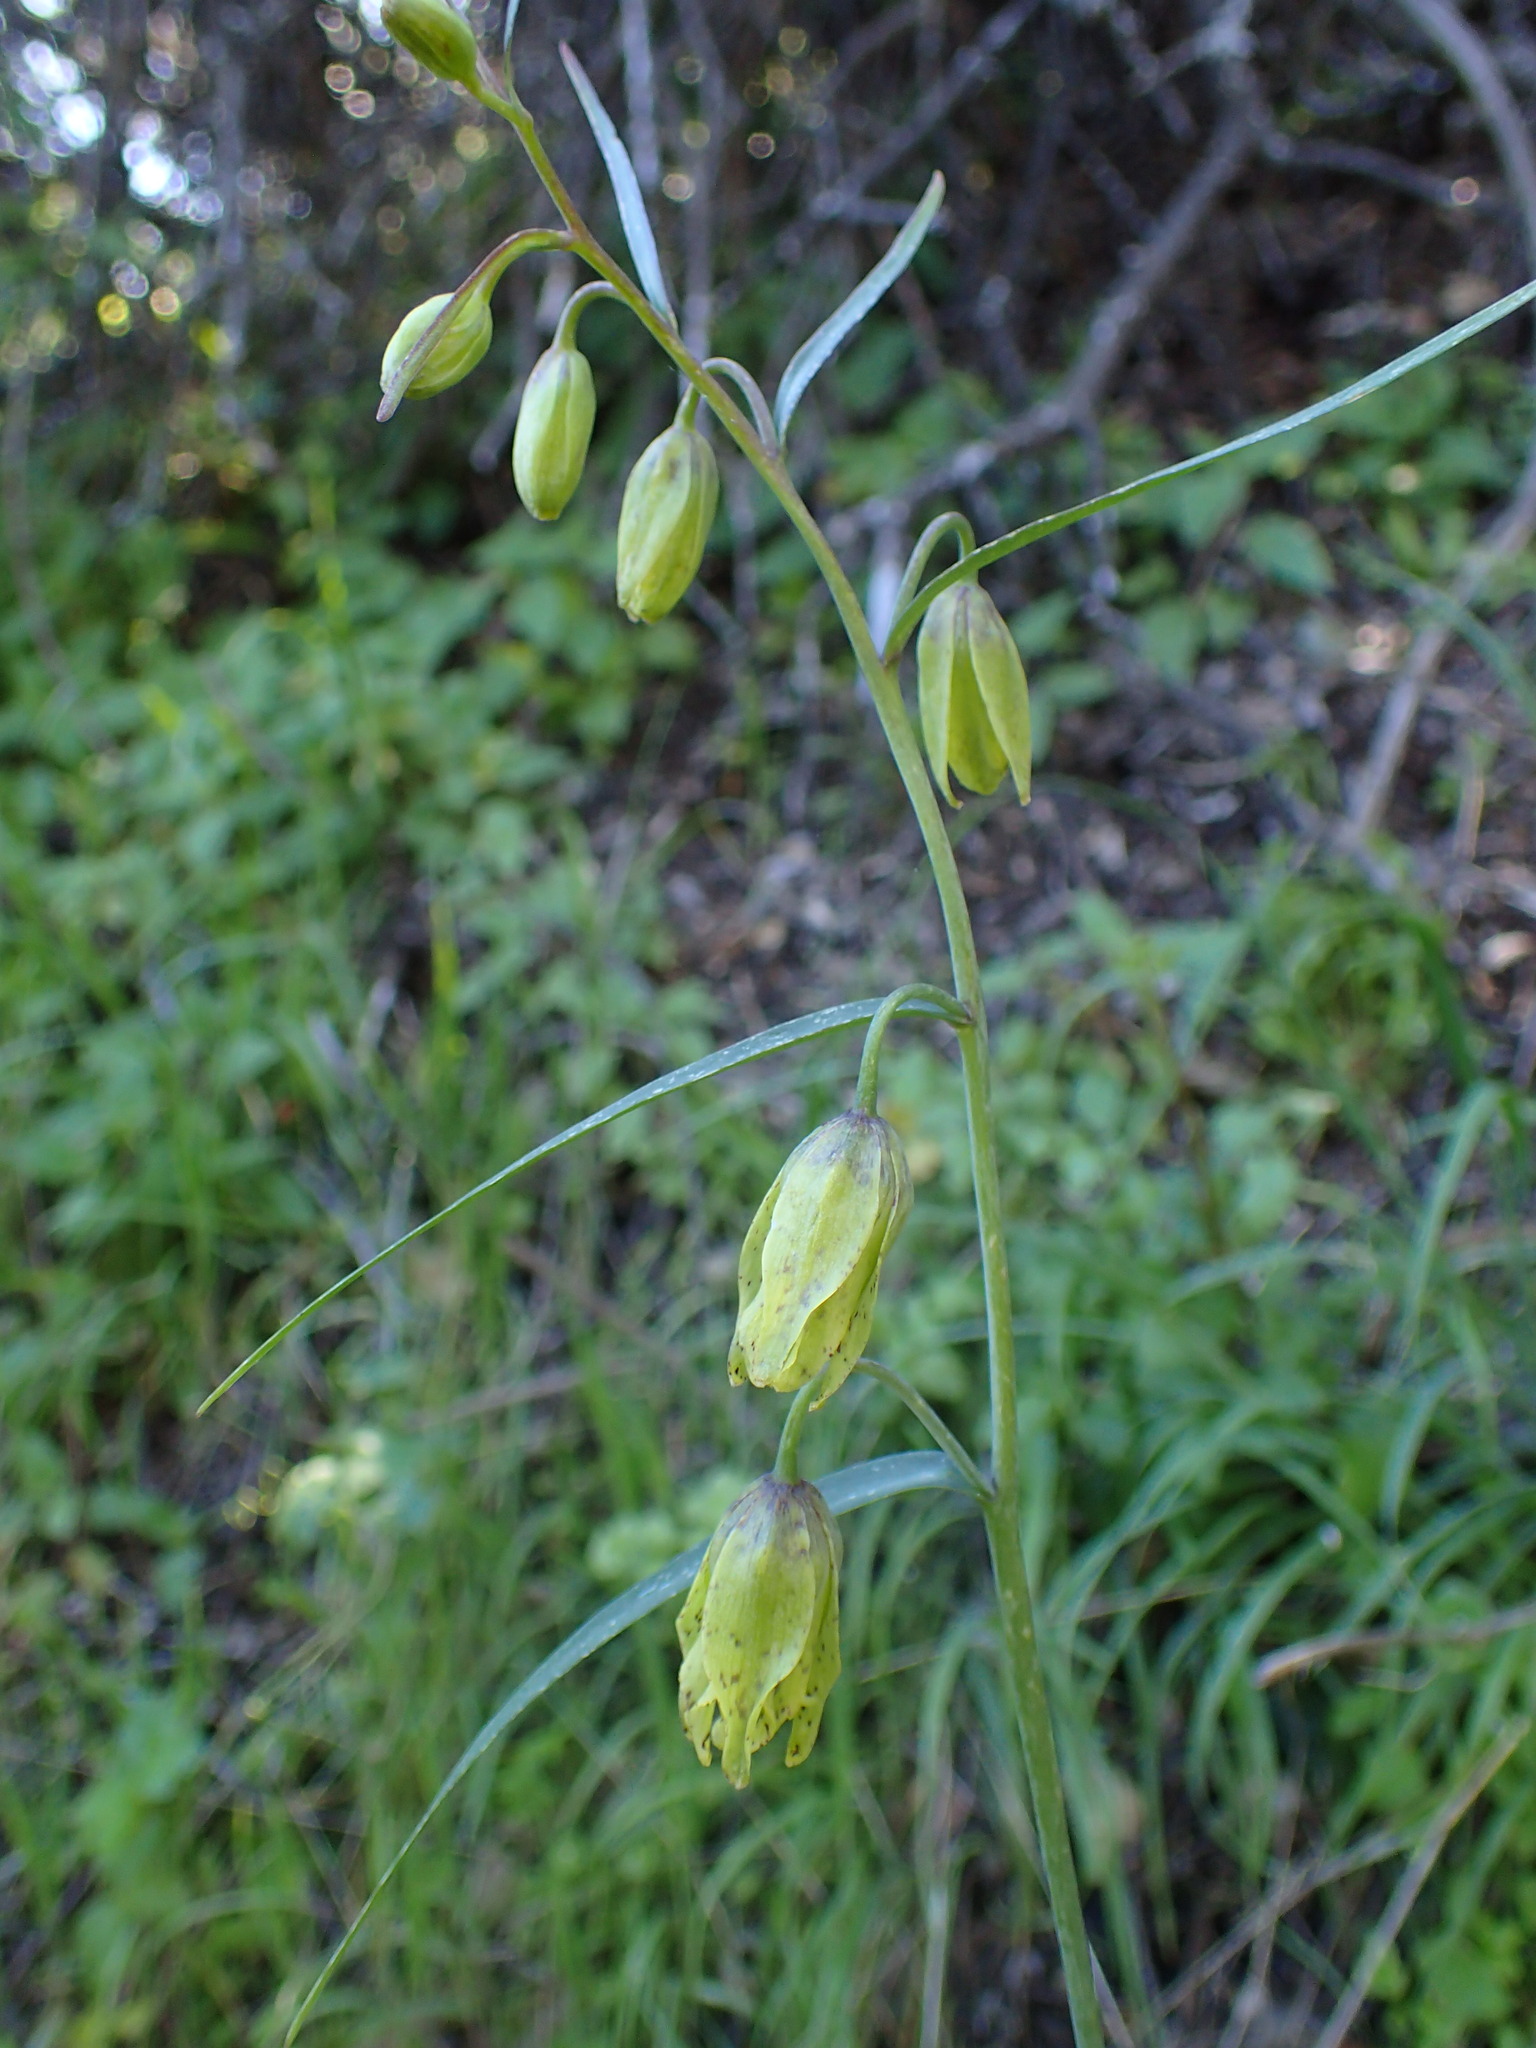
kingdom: Plantae
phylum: Tracheophyta
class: Liliopsida
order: Liliales
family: Liliaceae
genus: Fritillaria
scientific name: Fritillaria ojaiensis
